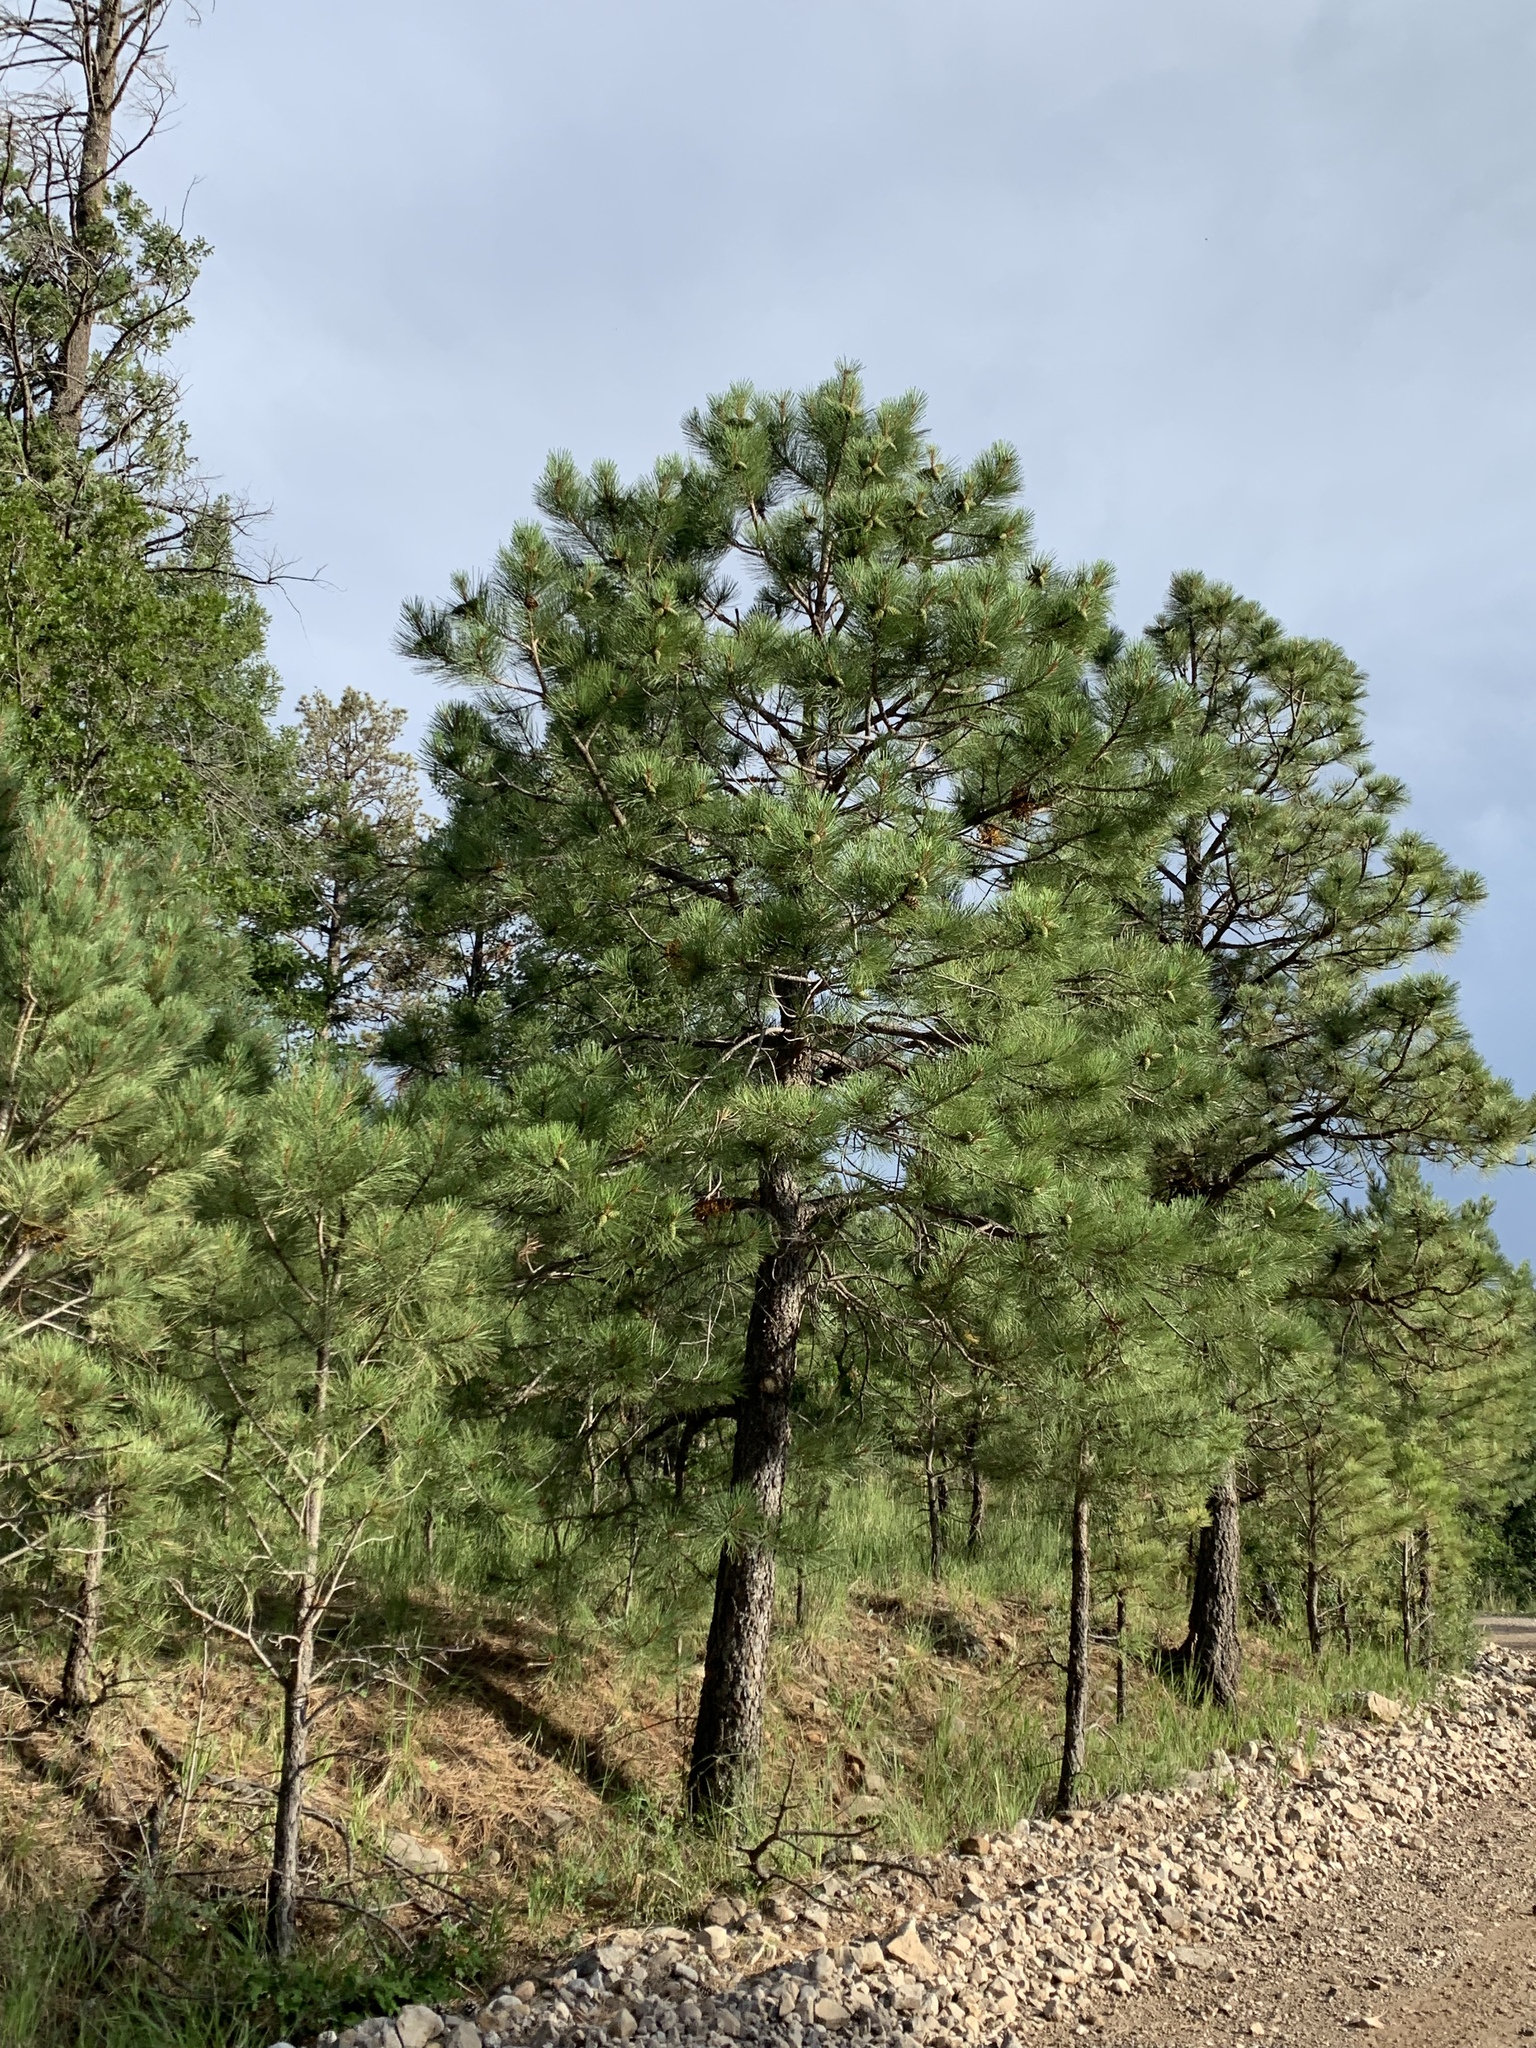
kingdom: Plantae
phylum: Tracheophyta
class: Pinopsida
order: Pinales
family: Pinaceae
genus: Pinus
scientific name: Pinus ponderosa
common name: Western yellow-pine
